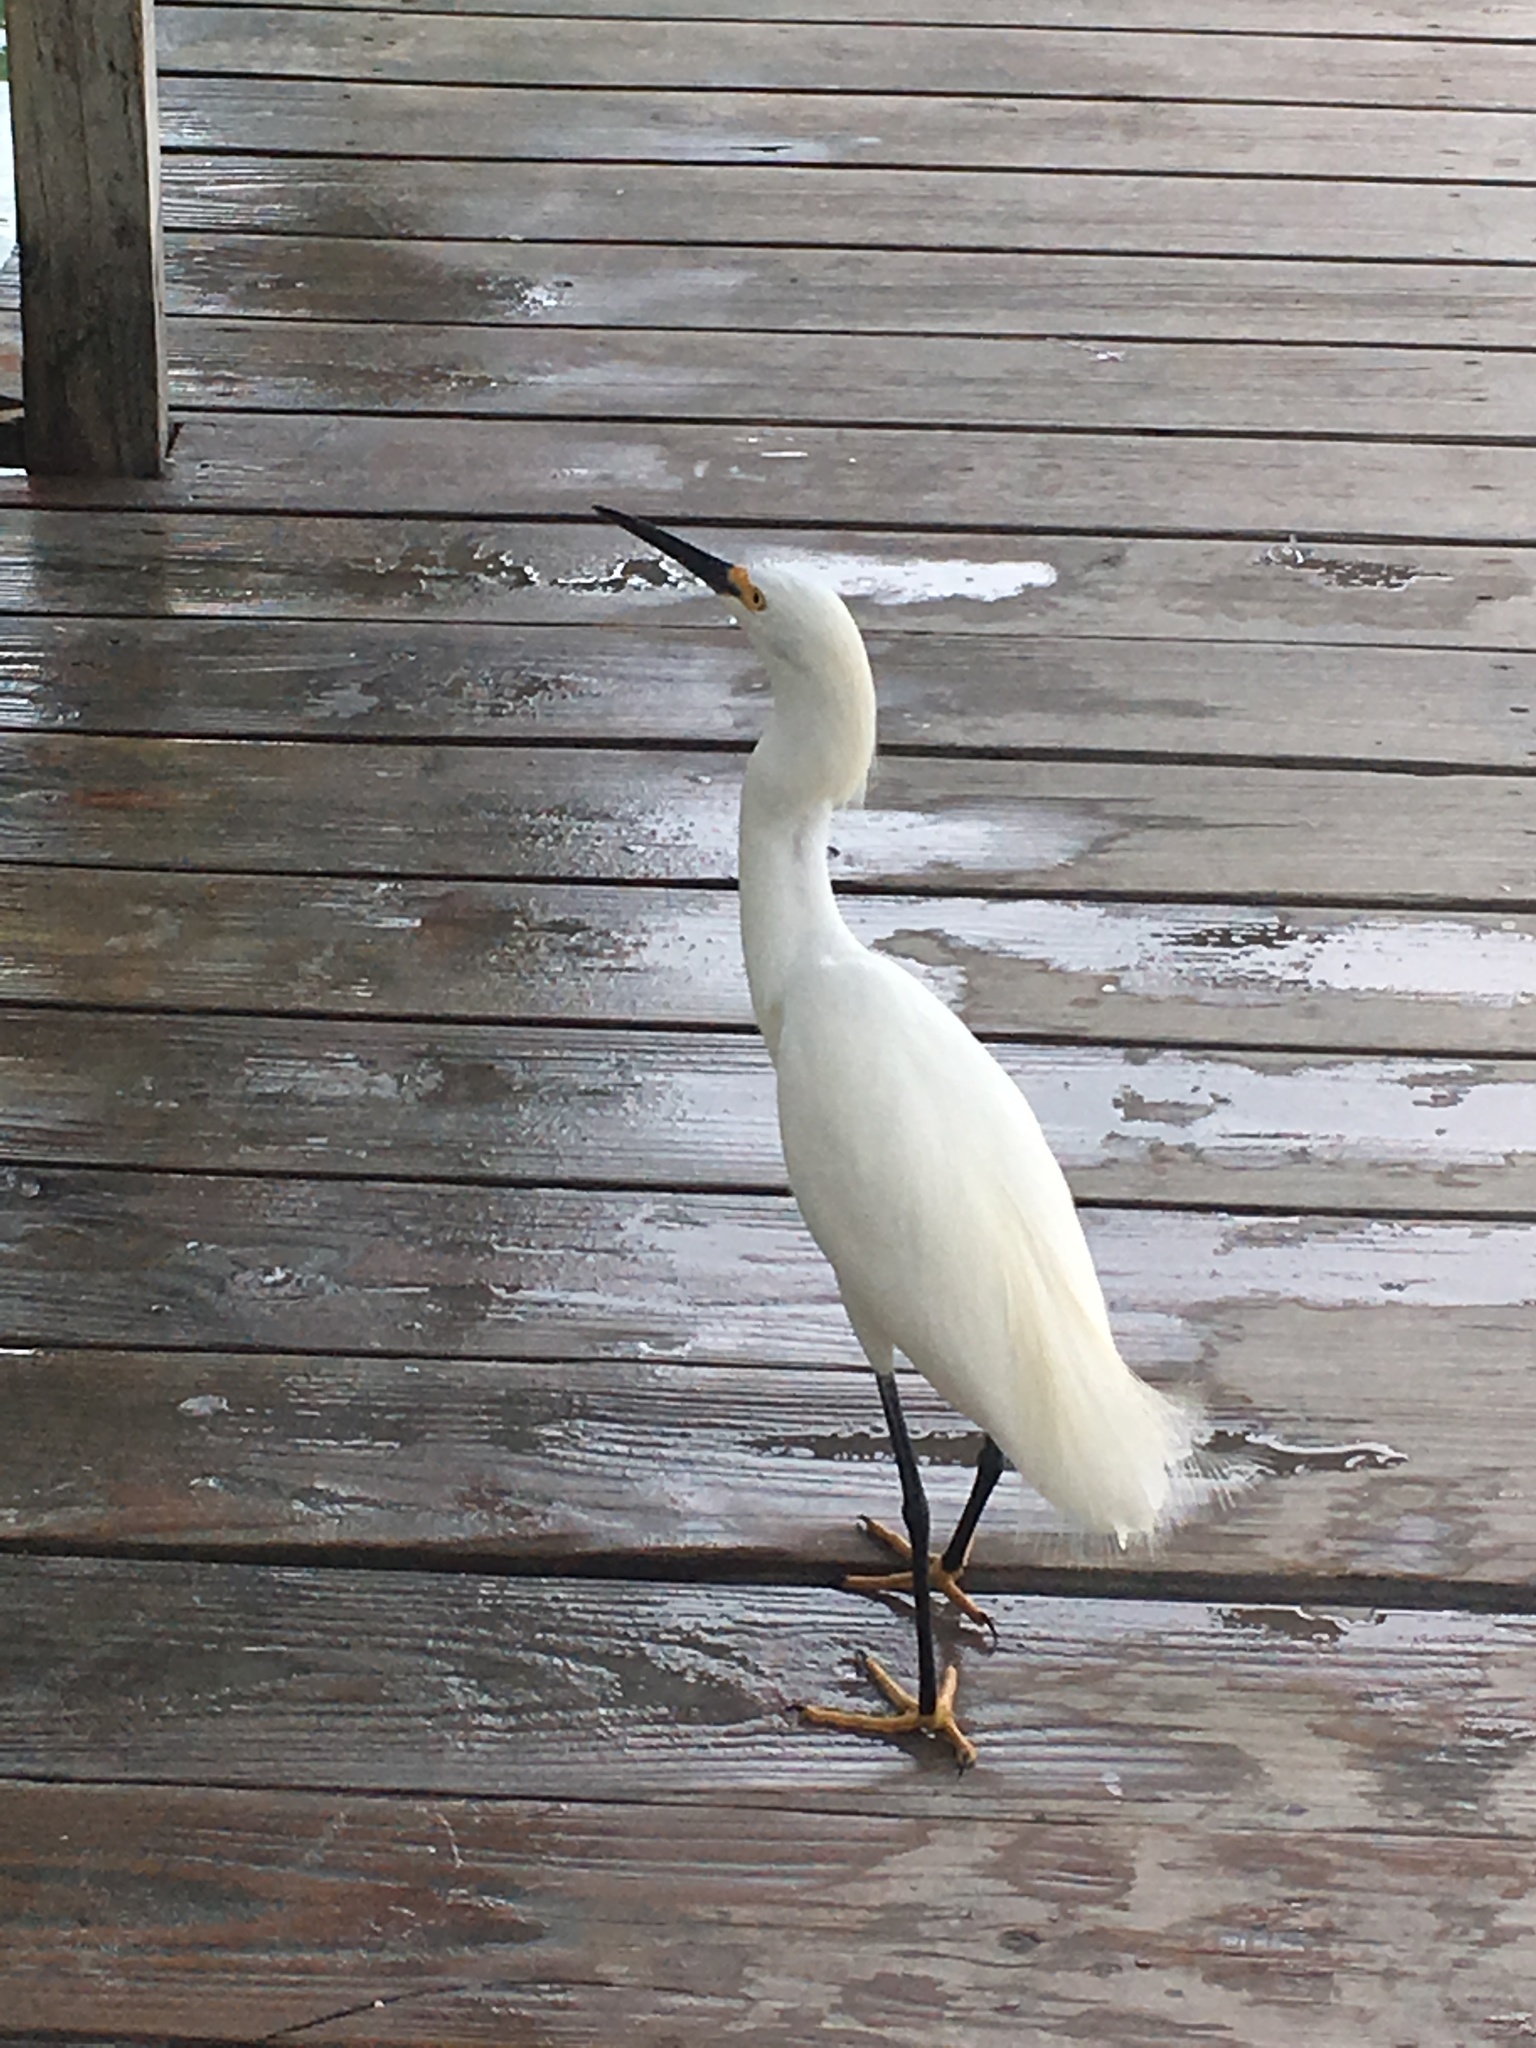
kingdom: Animalia
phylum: Chordata
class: Aves
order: Pelecaniformes
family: Ardeidae
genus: Egretta
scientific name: Egretta thula
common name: Snowy egret
